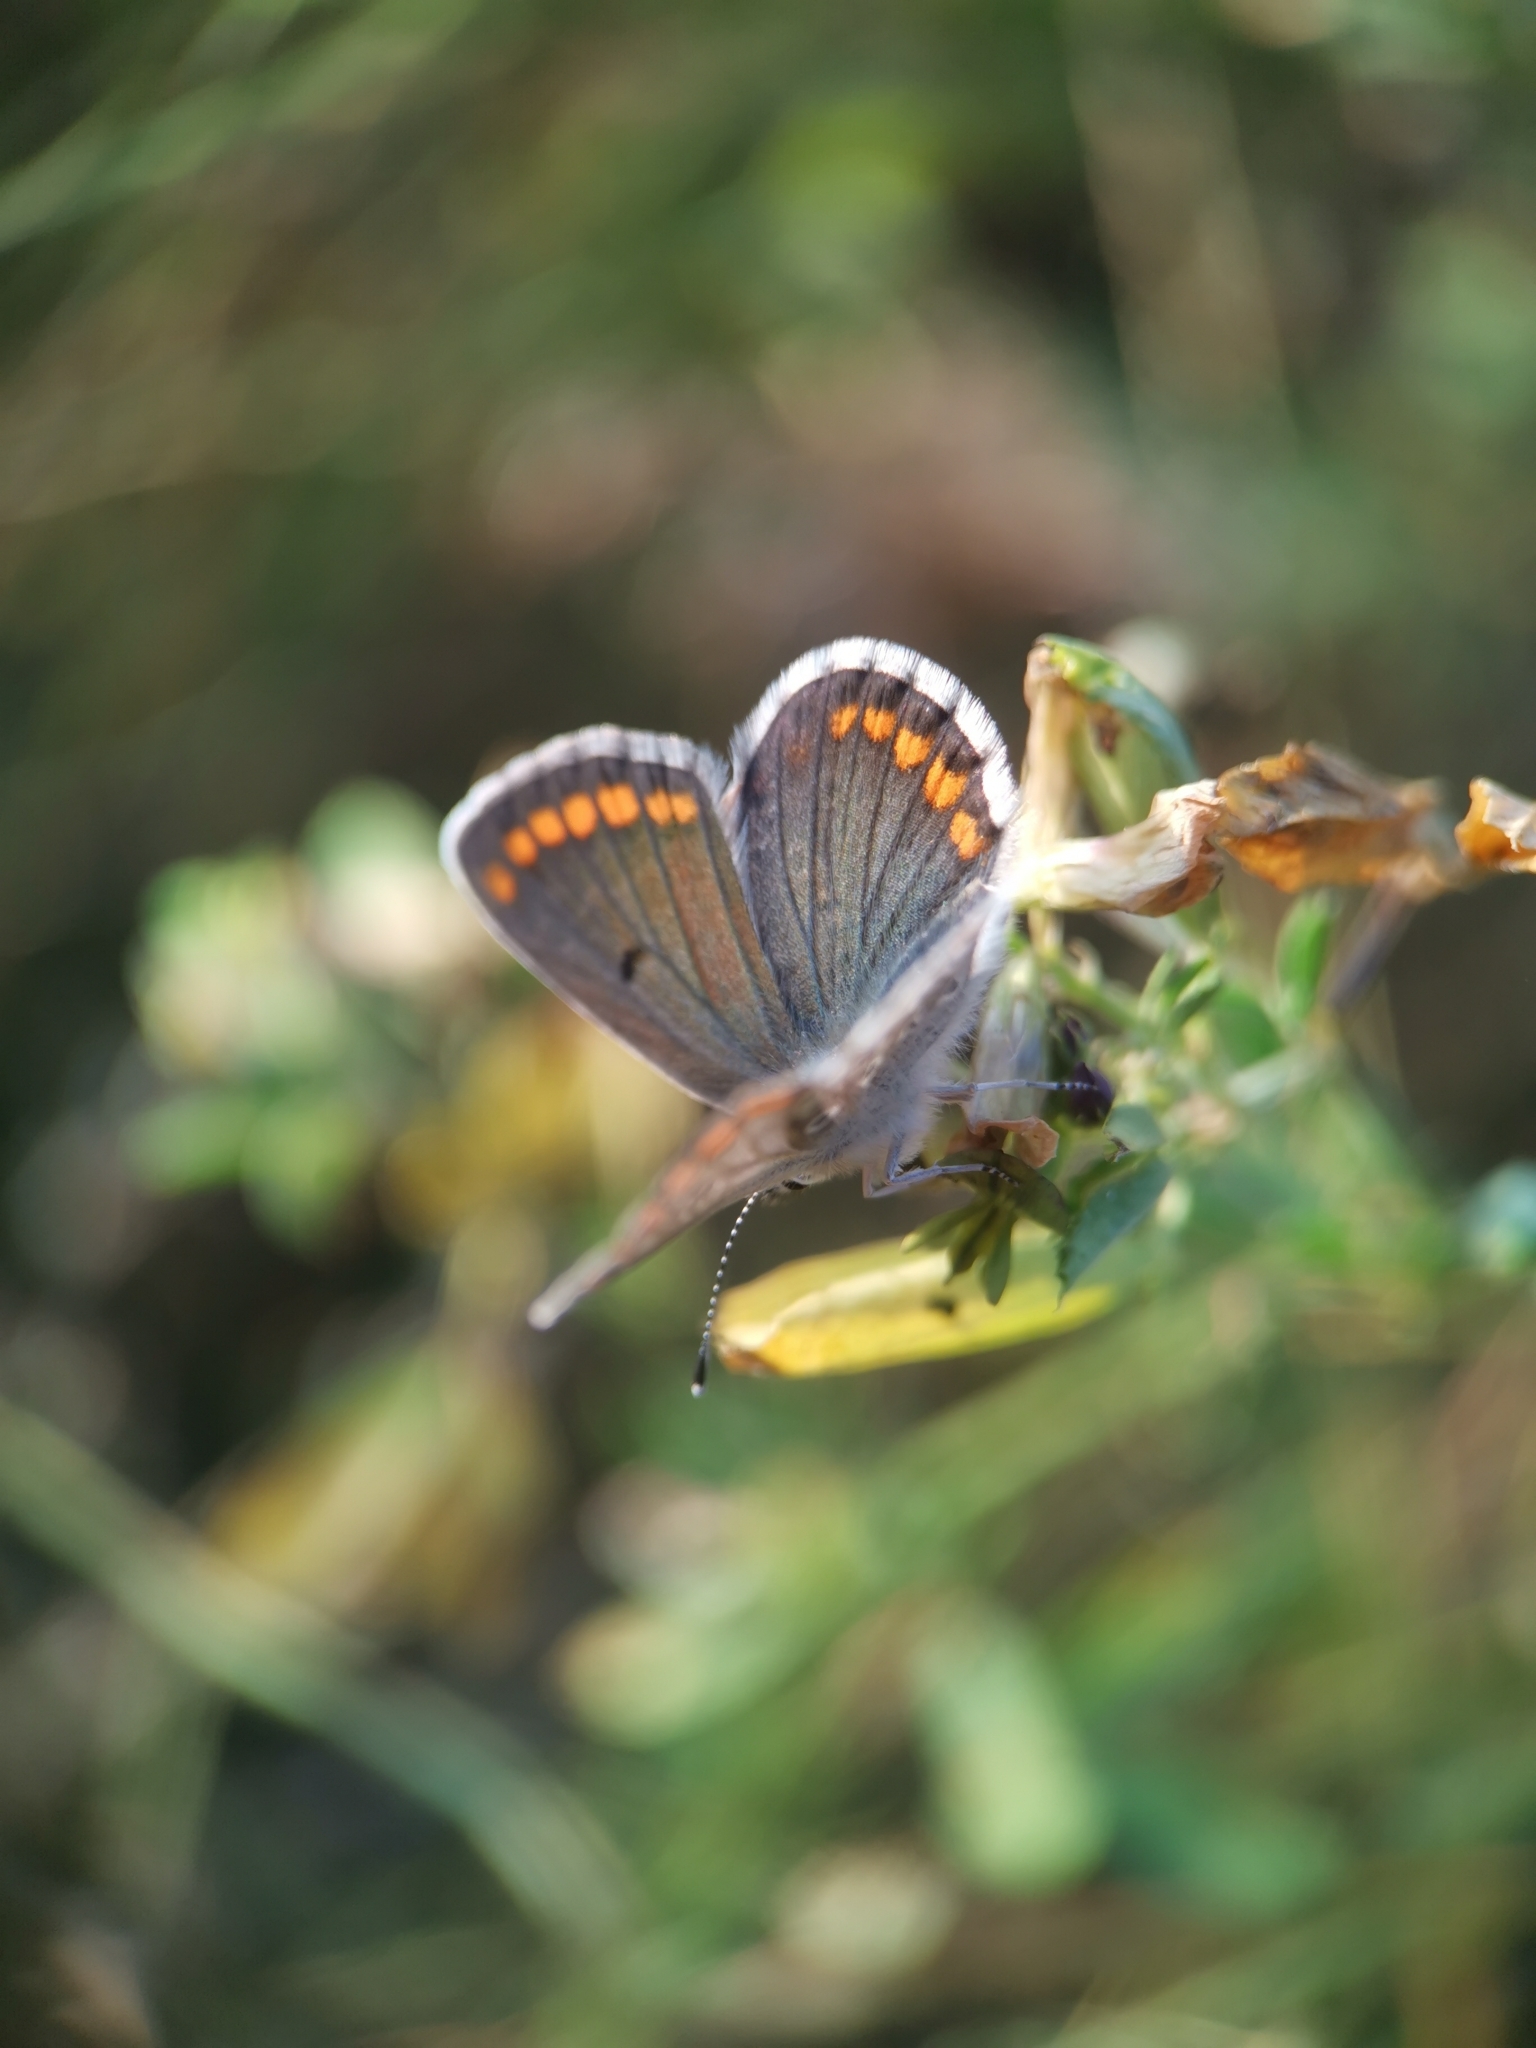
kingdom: Animalia
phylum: Arthropoda
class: Insecta
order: Lepidoptera
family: Lycaenidae
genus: Aricia
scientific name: Aricia agestis
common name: Brown argus
